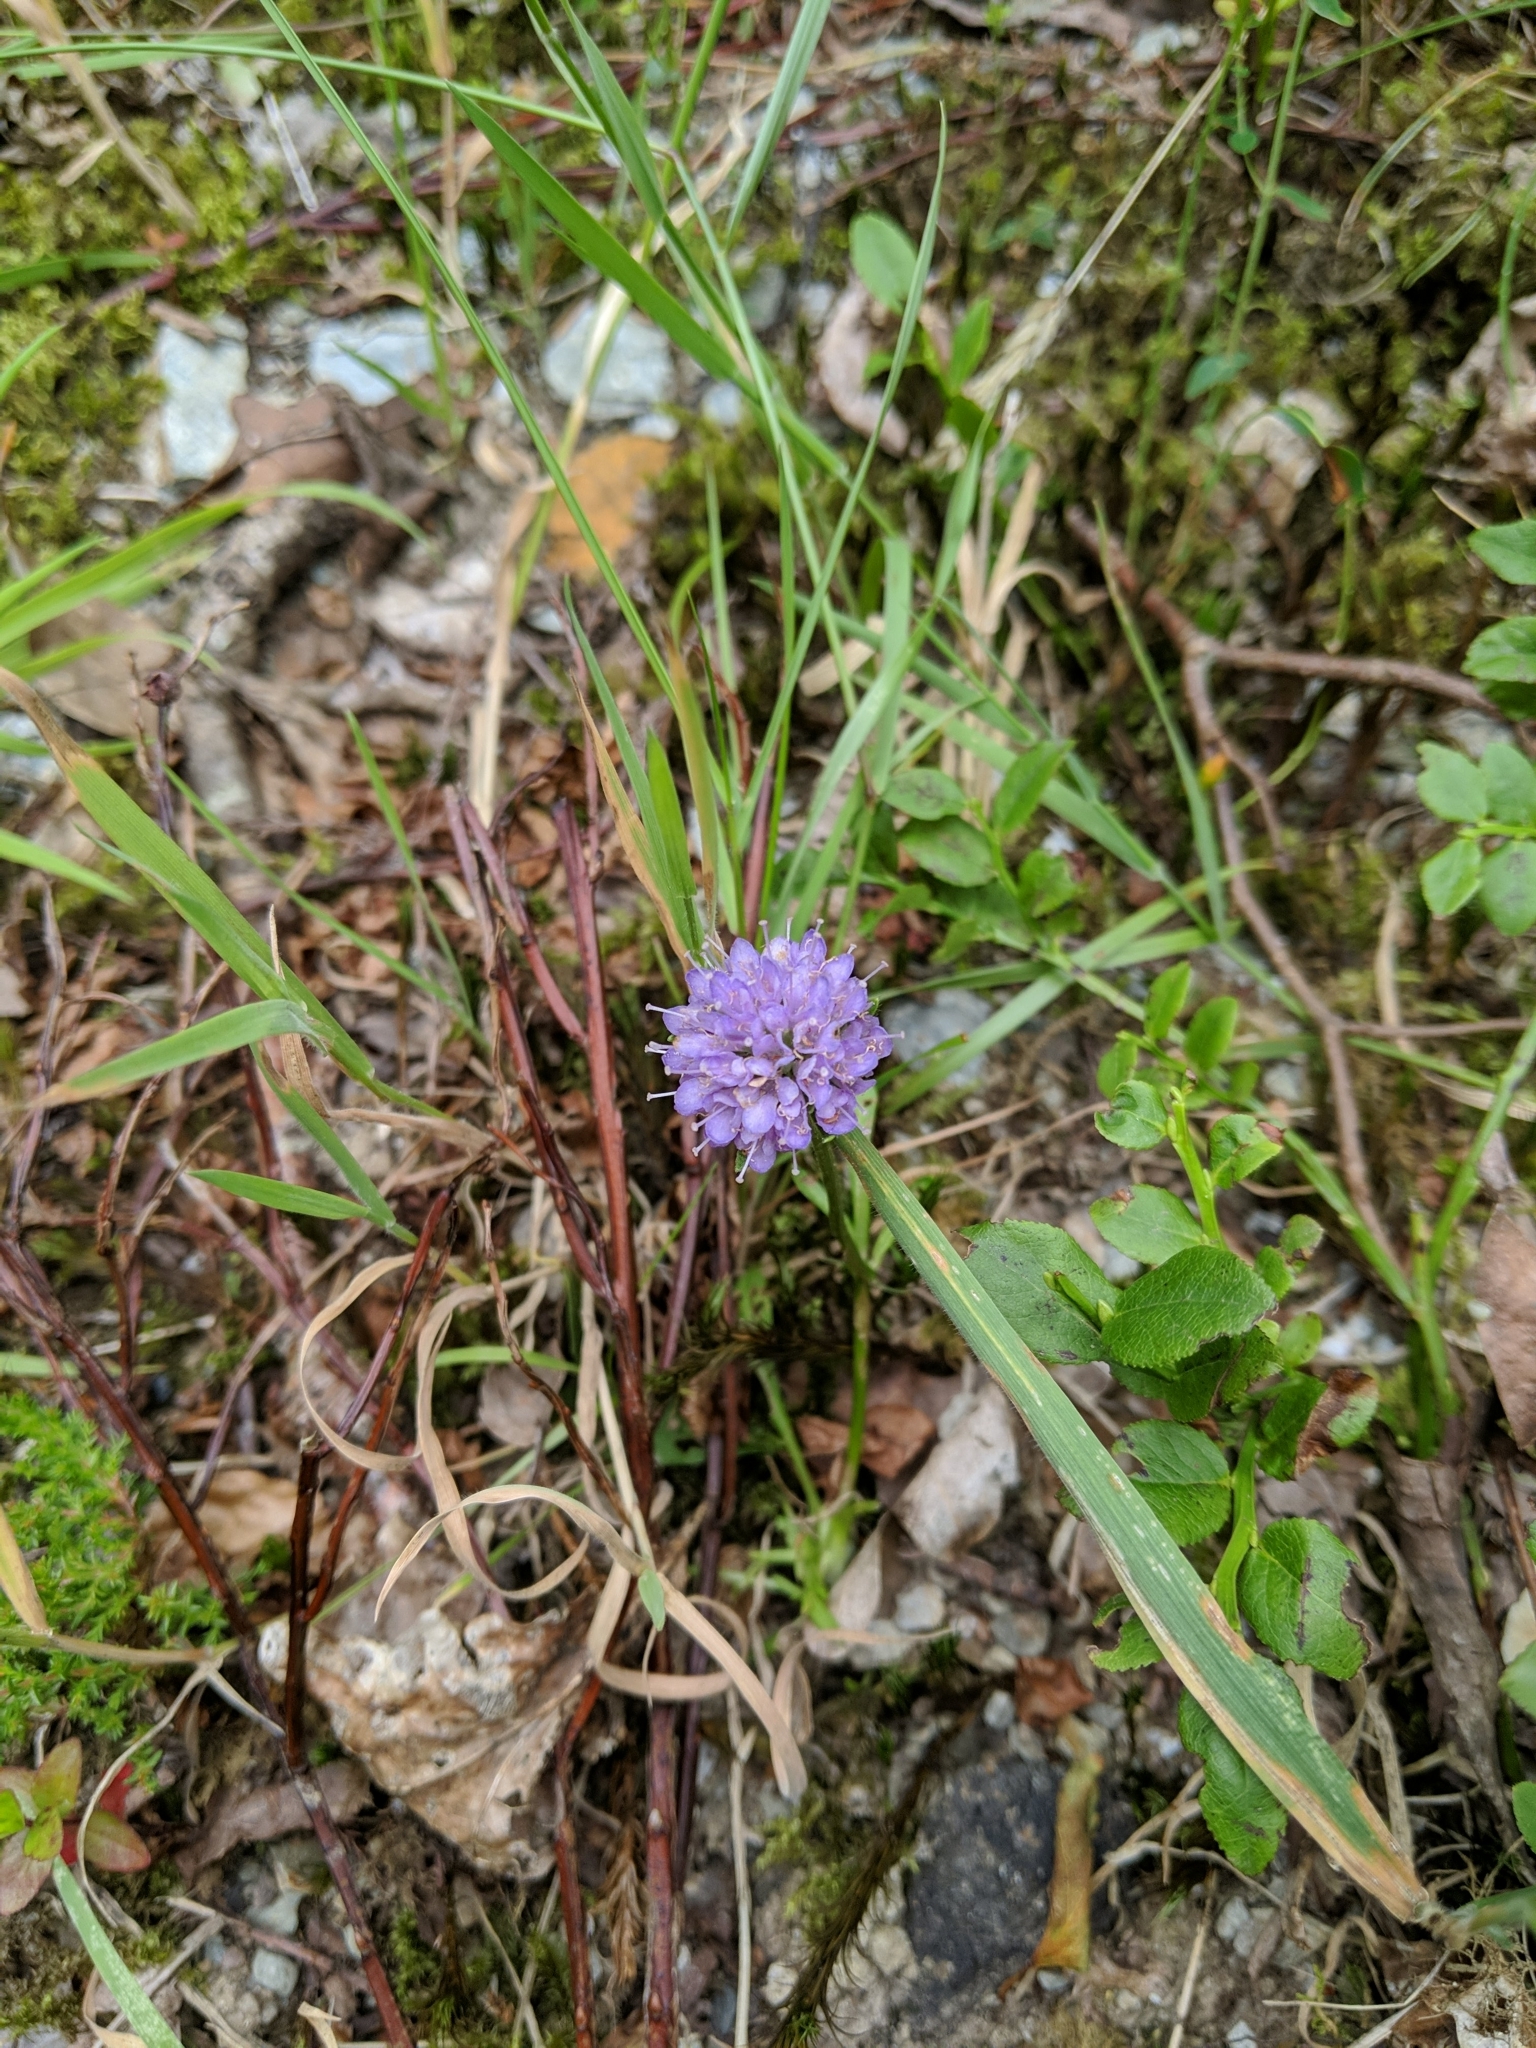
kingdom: Plantae
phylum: Tracheophyta
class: Magnoliopsida
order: Dipsacales
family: Caprifoliaceae
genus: Succisa
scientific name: Succisa pratensis
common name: Devil's-bit
